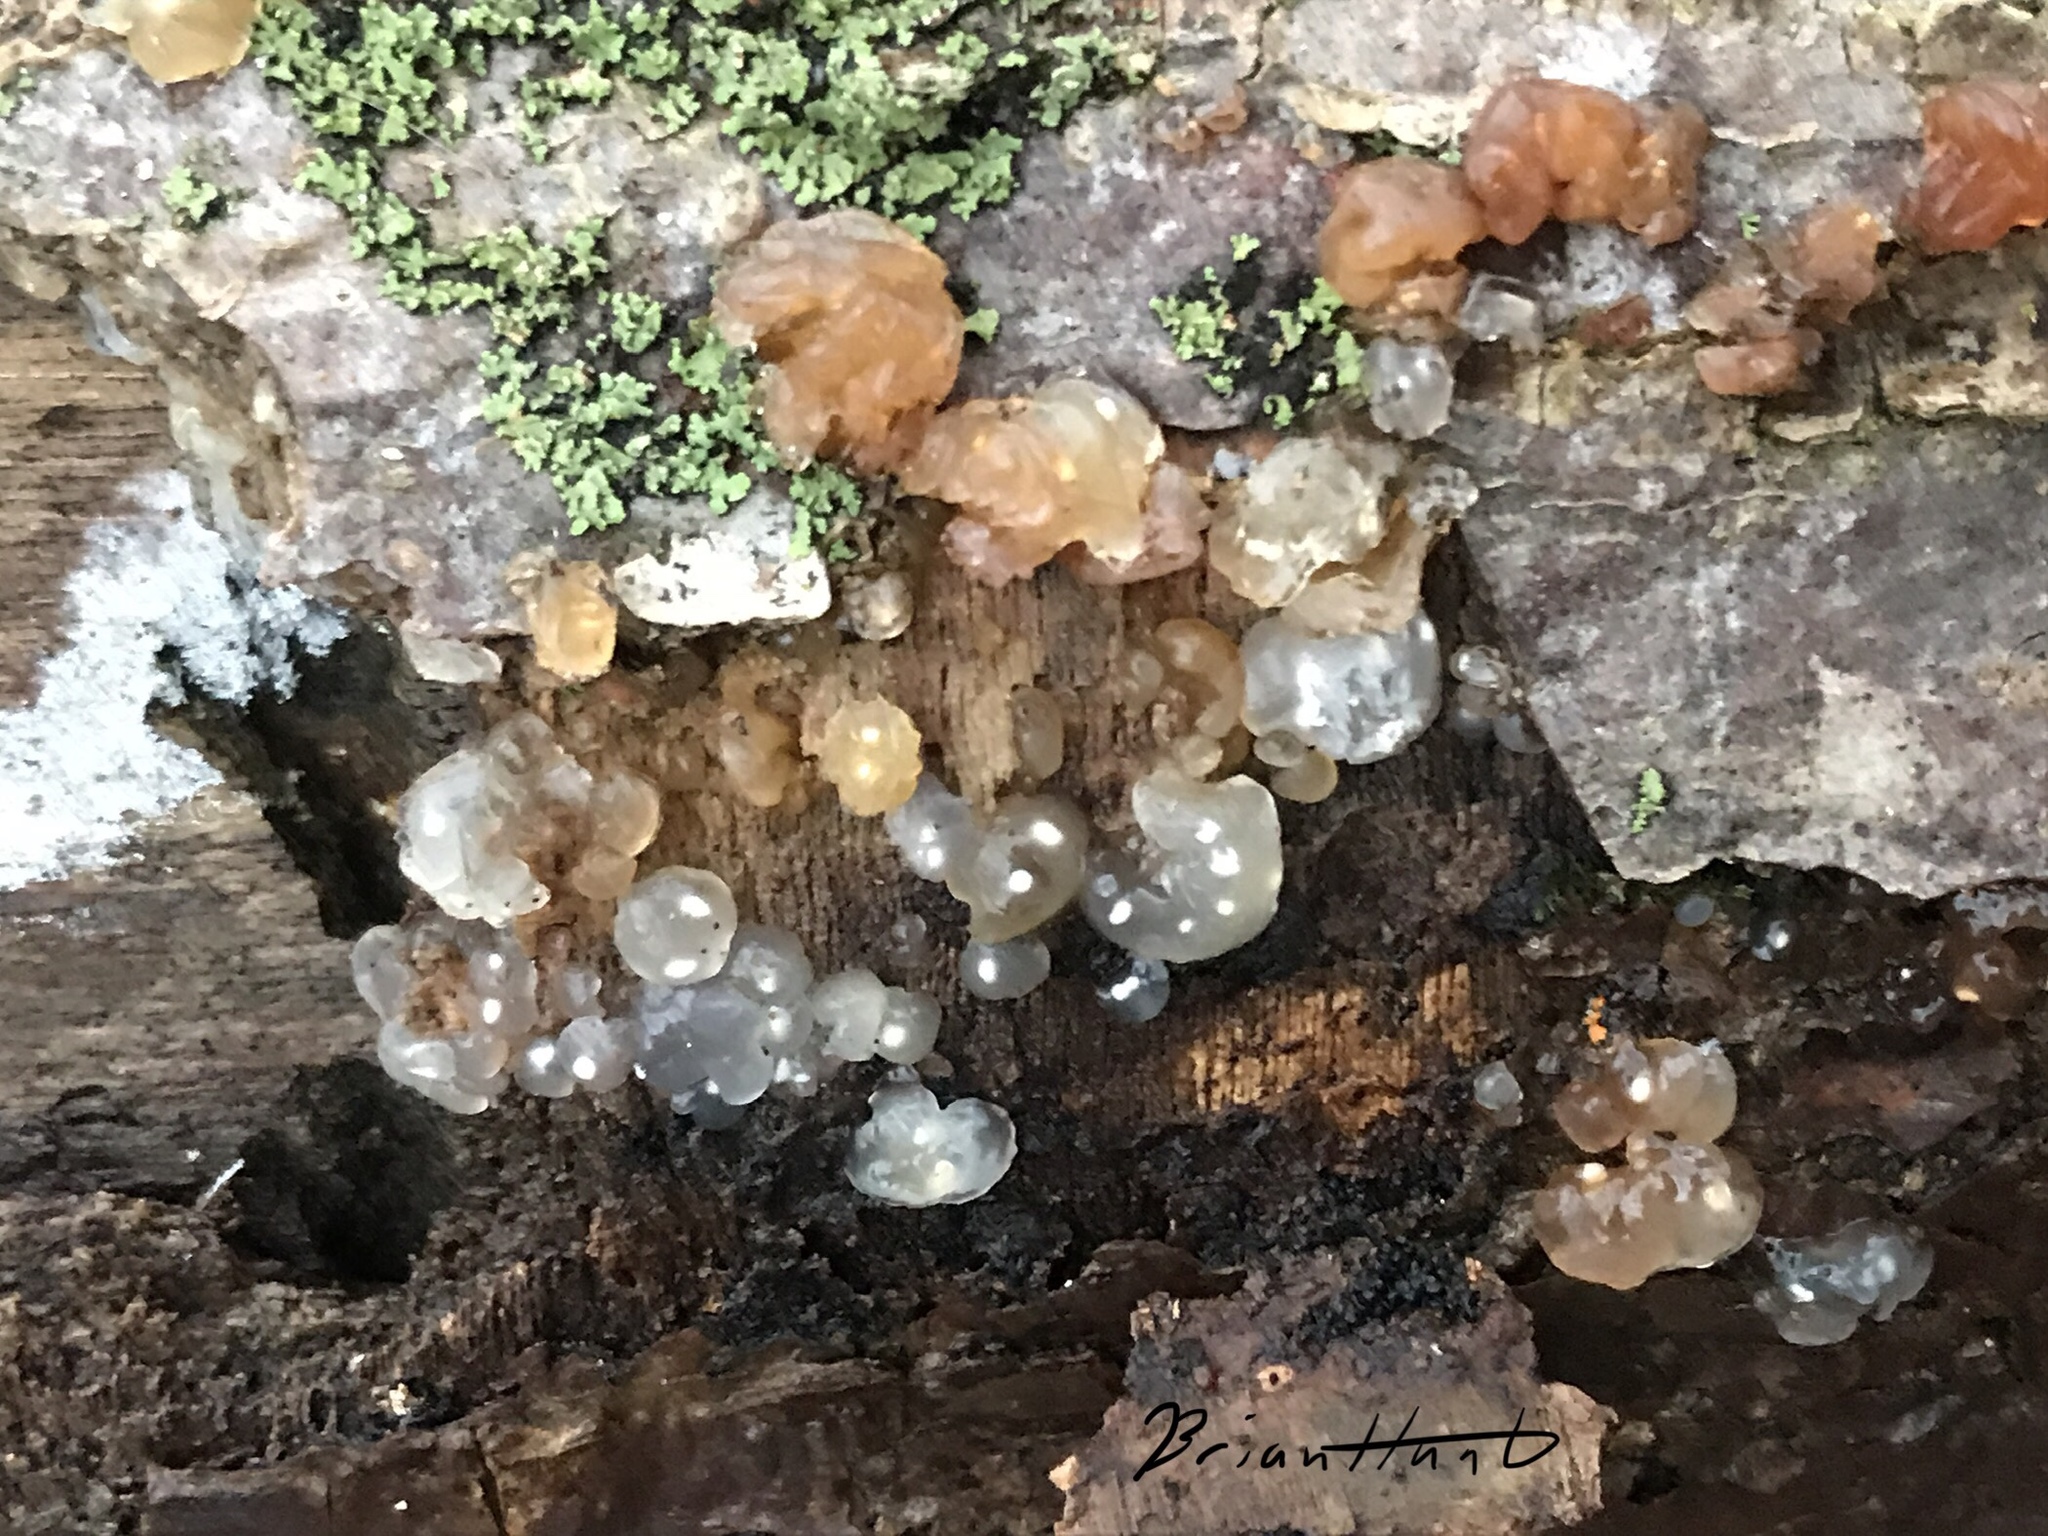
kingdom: Fungi
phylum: Basidiomycota
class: Agaricomycetes
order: Auriculariales
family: Hyaloriaceae
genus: Myxarium
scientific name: Myxarium nucleatum
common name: Crystal brain fungus
